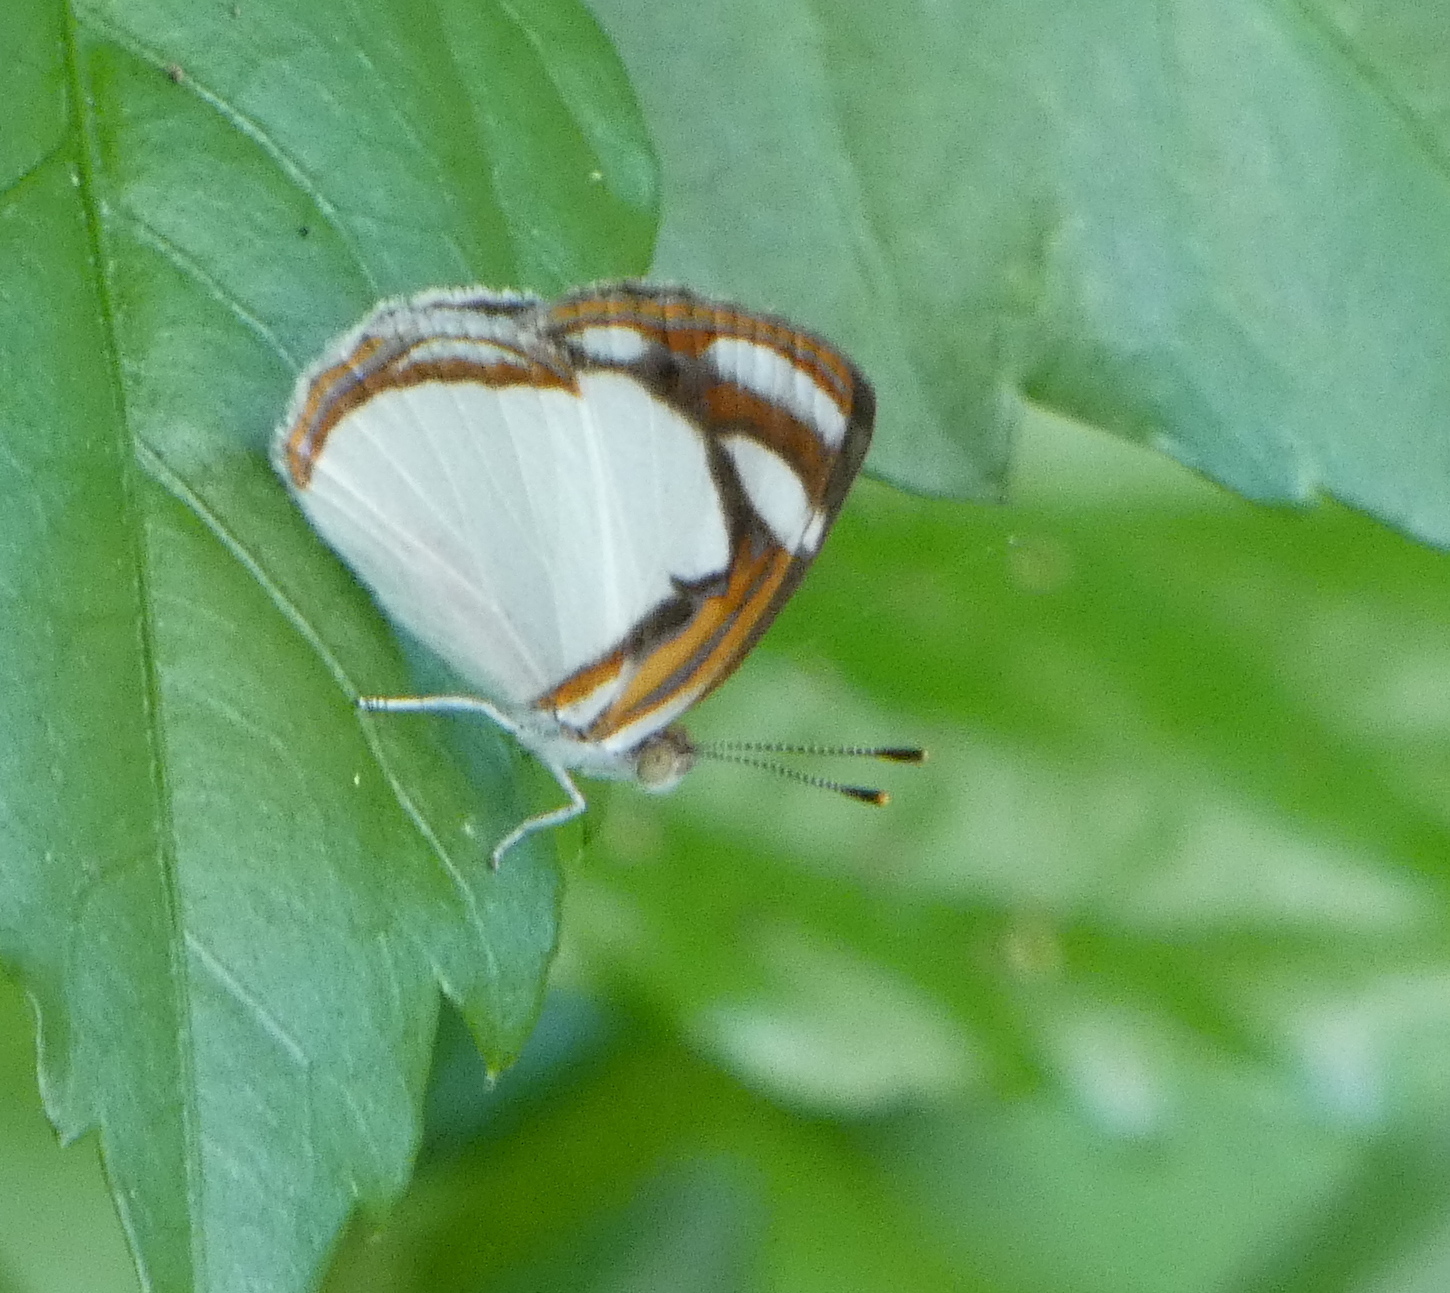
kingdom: Animalia
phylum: Arthropoda
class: Insecta
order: Lepidoptera
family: Nymphalidae
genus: Dynamine
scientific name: Dynamine agacles
